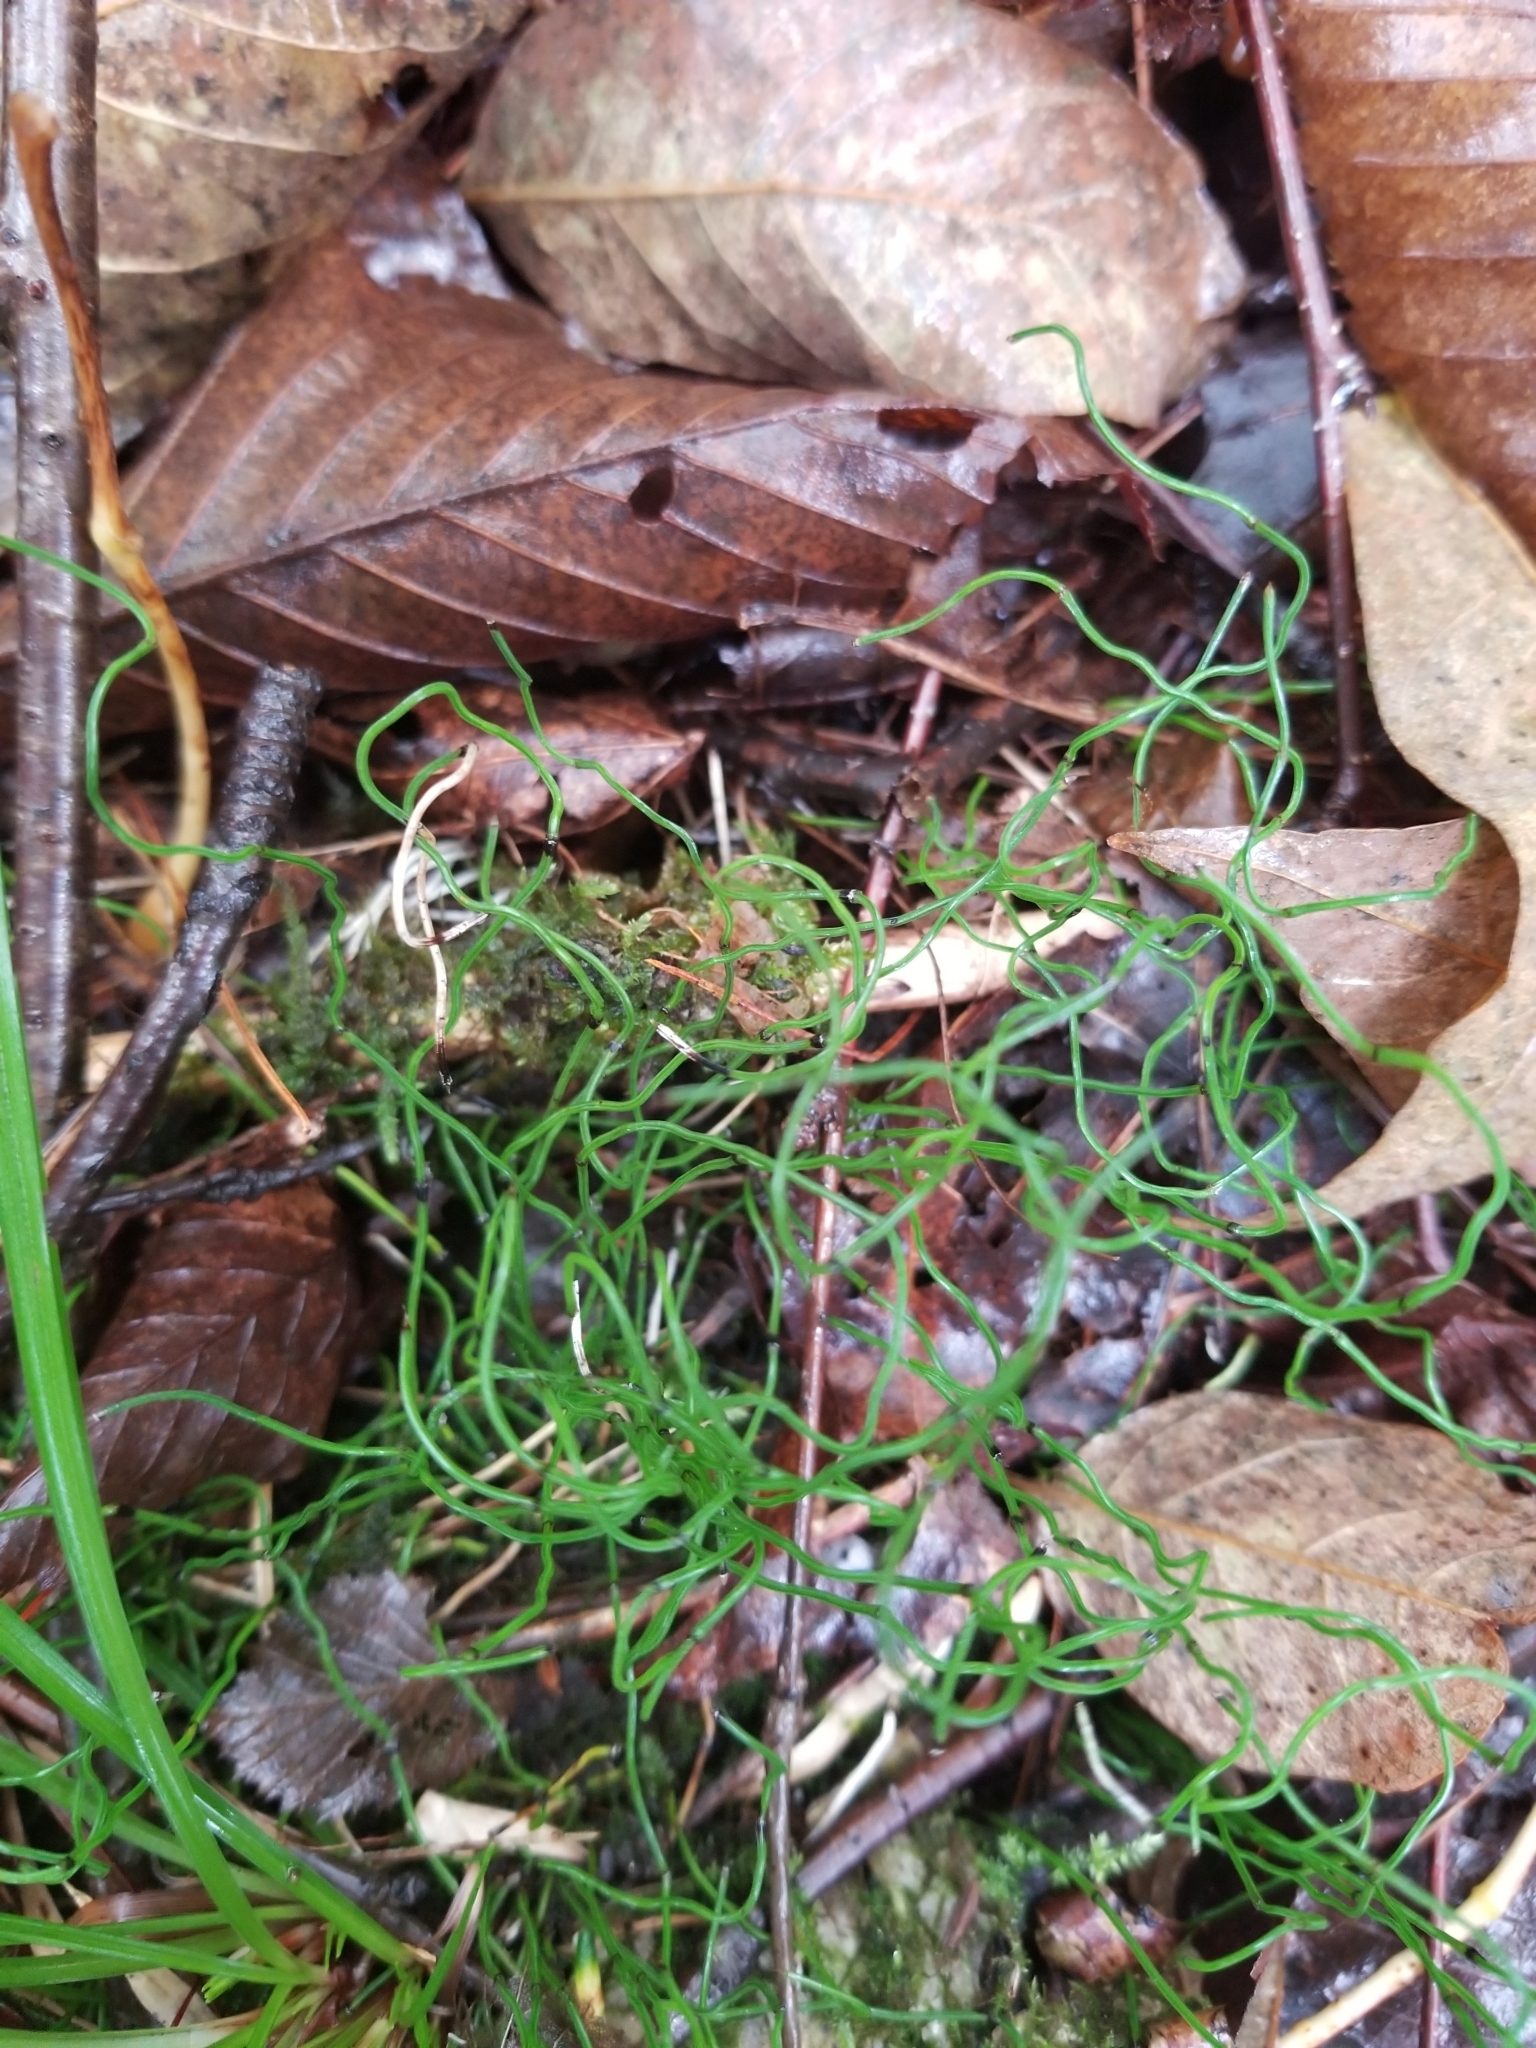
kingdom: Plantae
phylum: Tracheophyta
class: Polypodiopsida
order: Equisetales
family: Equisetaceae
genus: Equisetum
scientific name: Equisetum scirpoides
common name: Delicate horsetail
